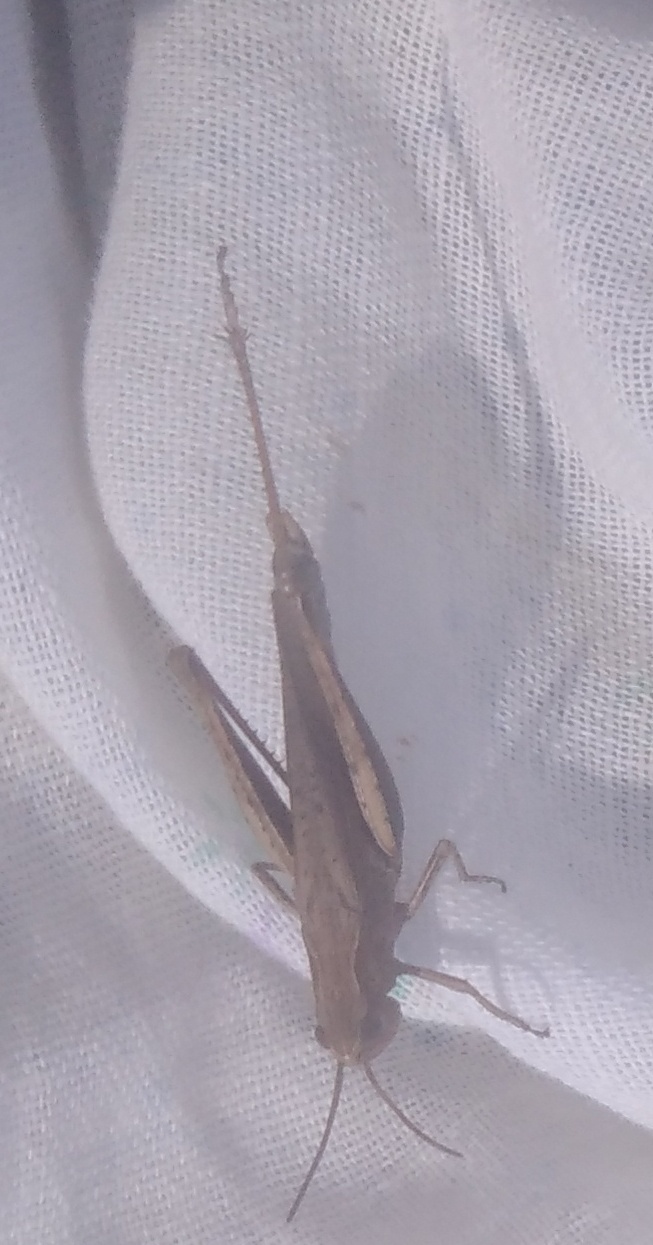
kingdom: Animalia
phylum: Arthropoda
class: Insecta
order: Orthoptera
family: Acrididae
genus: Chorthippus
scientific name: Chorthippus dorsatus
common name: Steppe grasshopper
